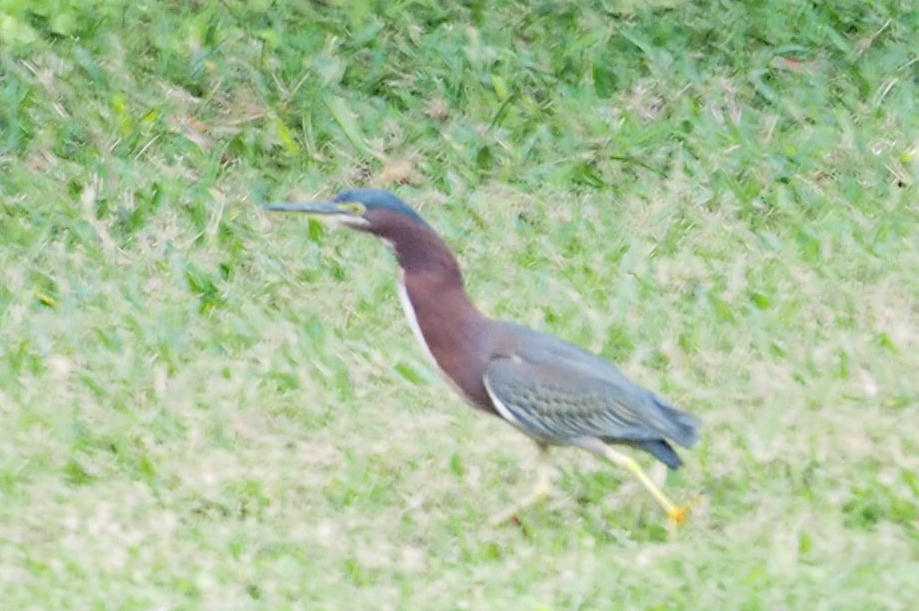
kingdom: Animalia
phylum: Chordata
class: Aves
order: Pelecaniformes
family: Ardeidae
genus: Butorides
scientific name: Butorides virescens
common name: Green heron
